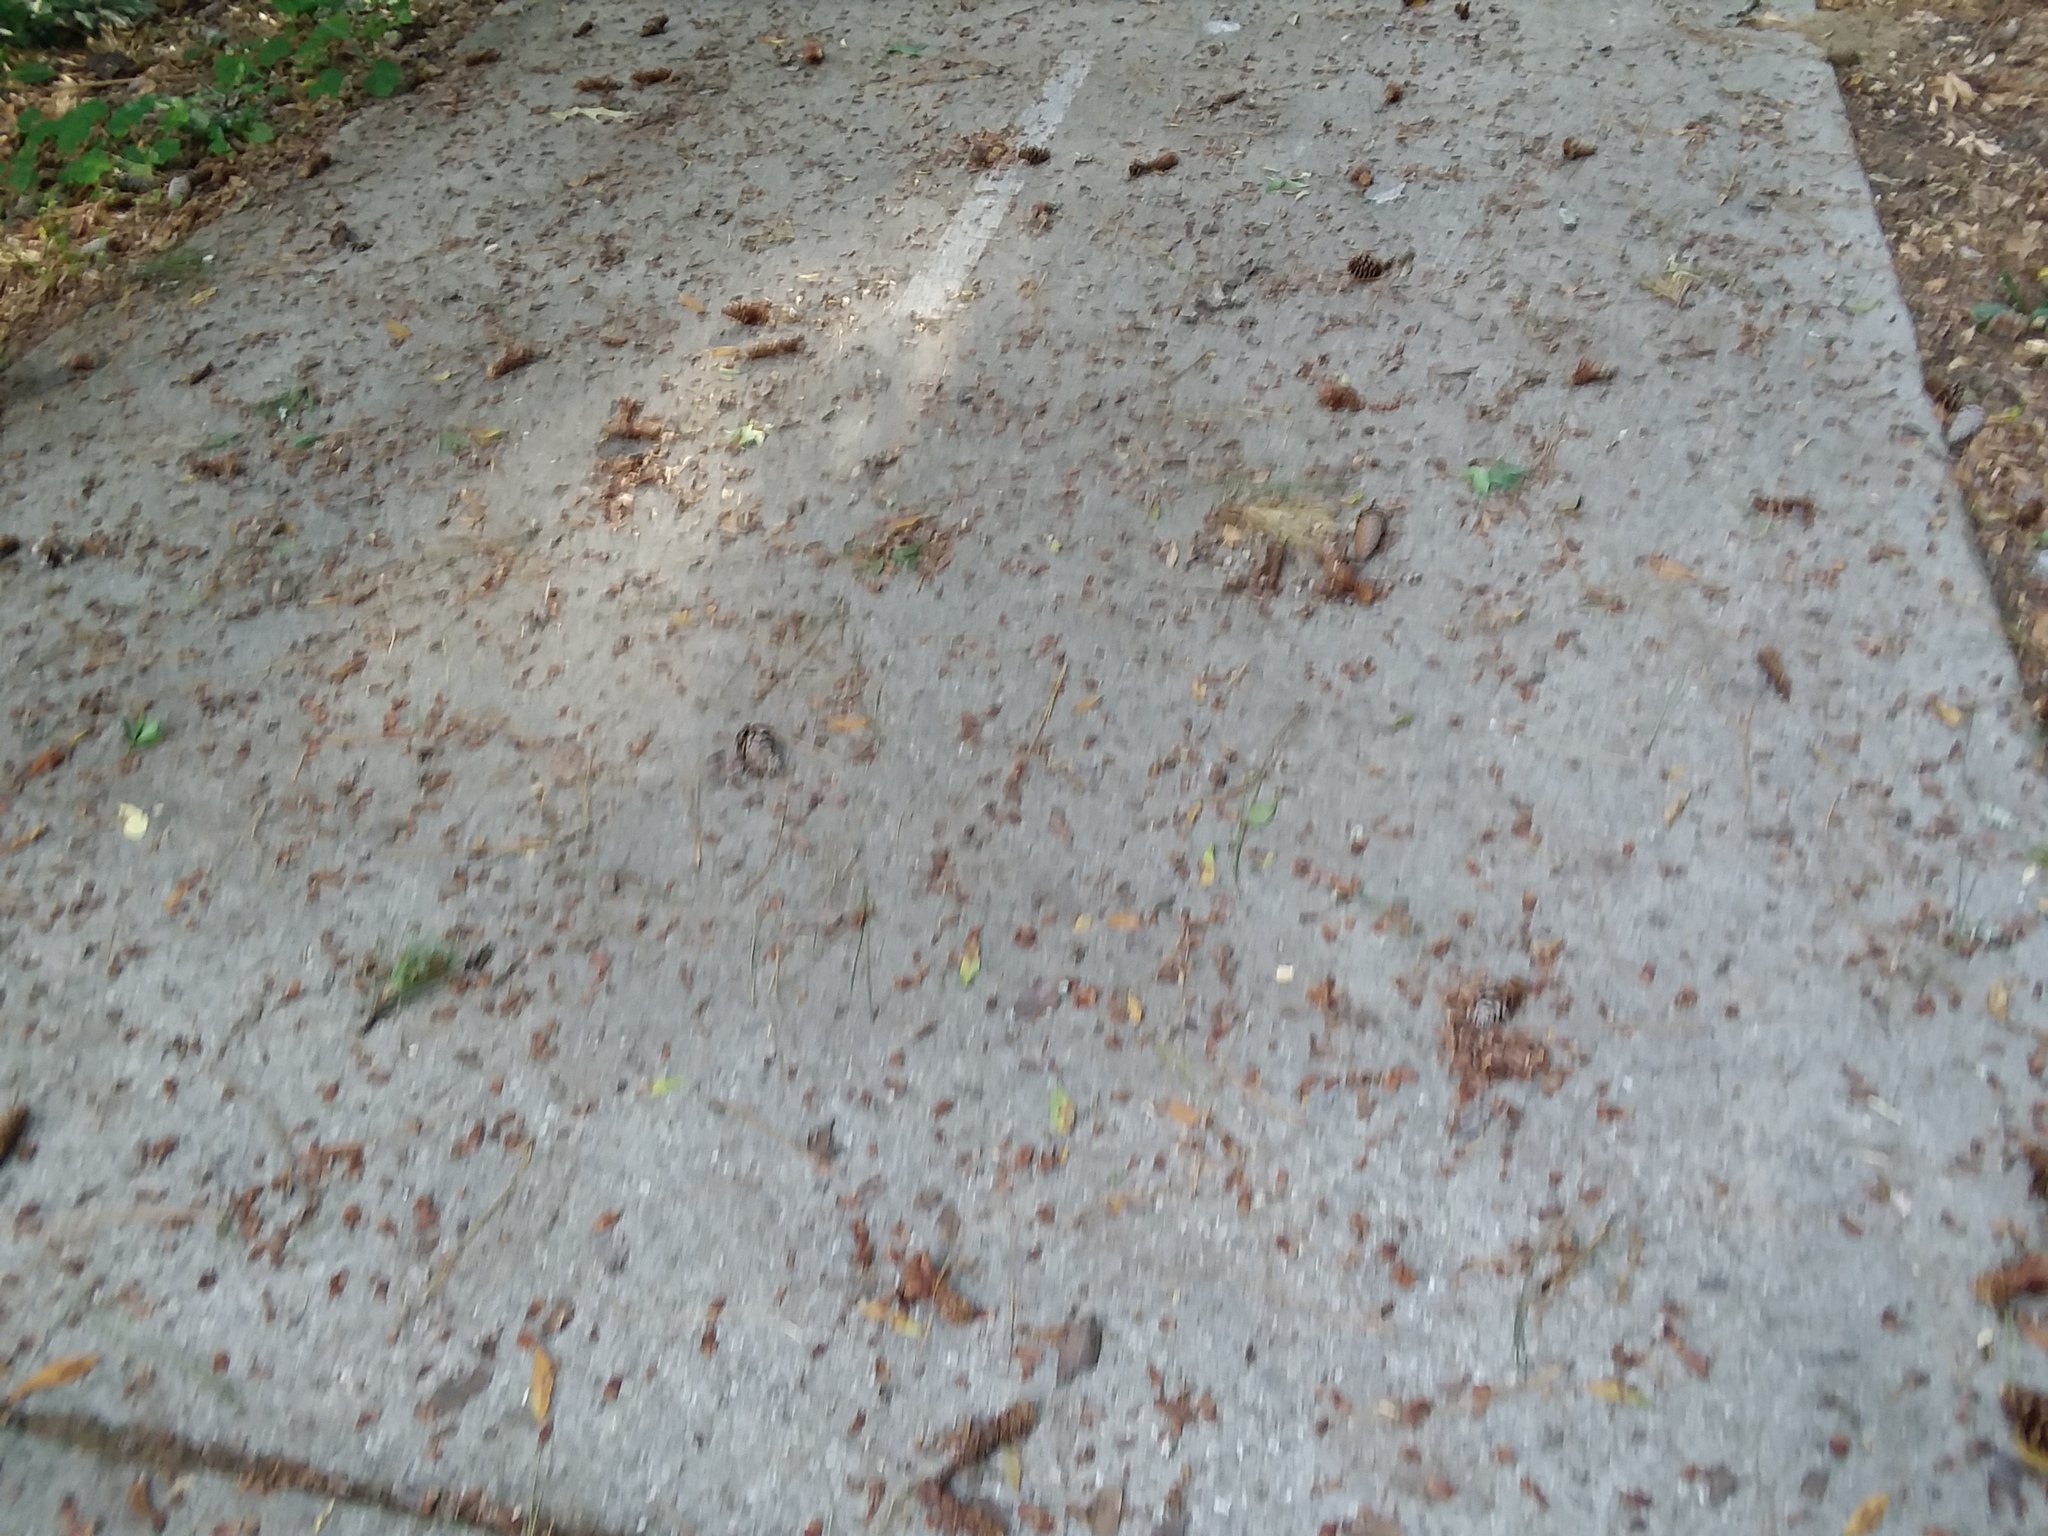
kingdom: Animalia
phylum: Chordata
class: Mammalia
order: Rodentia
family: Sciuridae
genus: Sciurus
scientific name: Sciurus carolinensis
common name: Eastern gray squirrel
